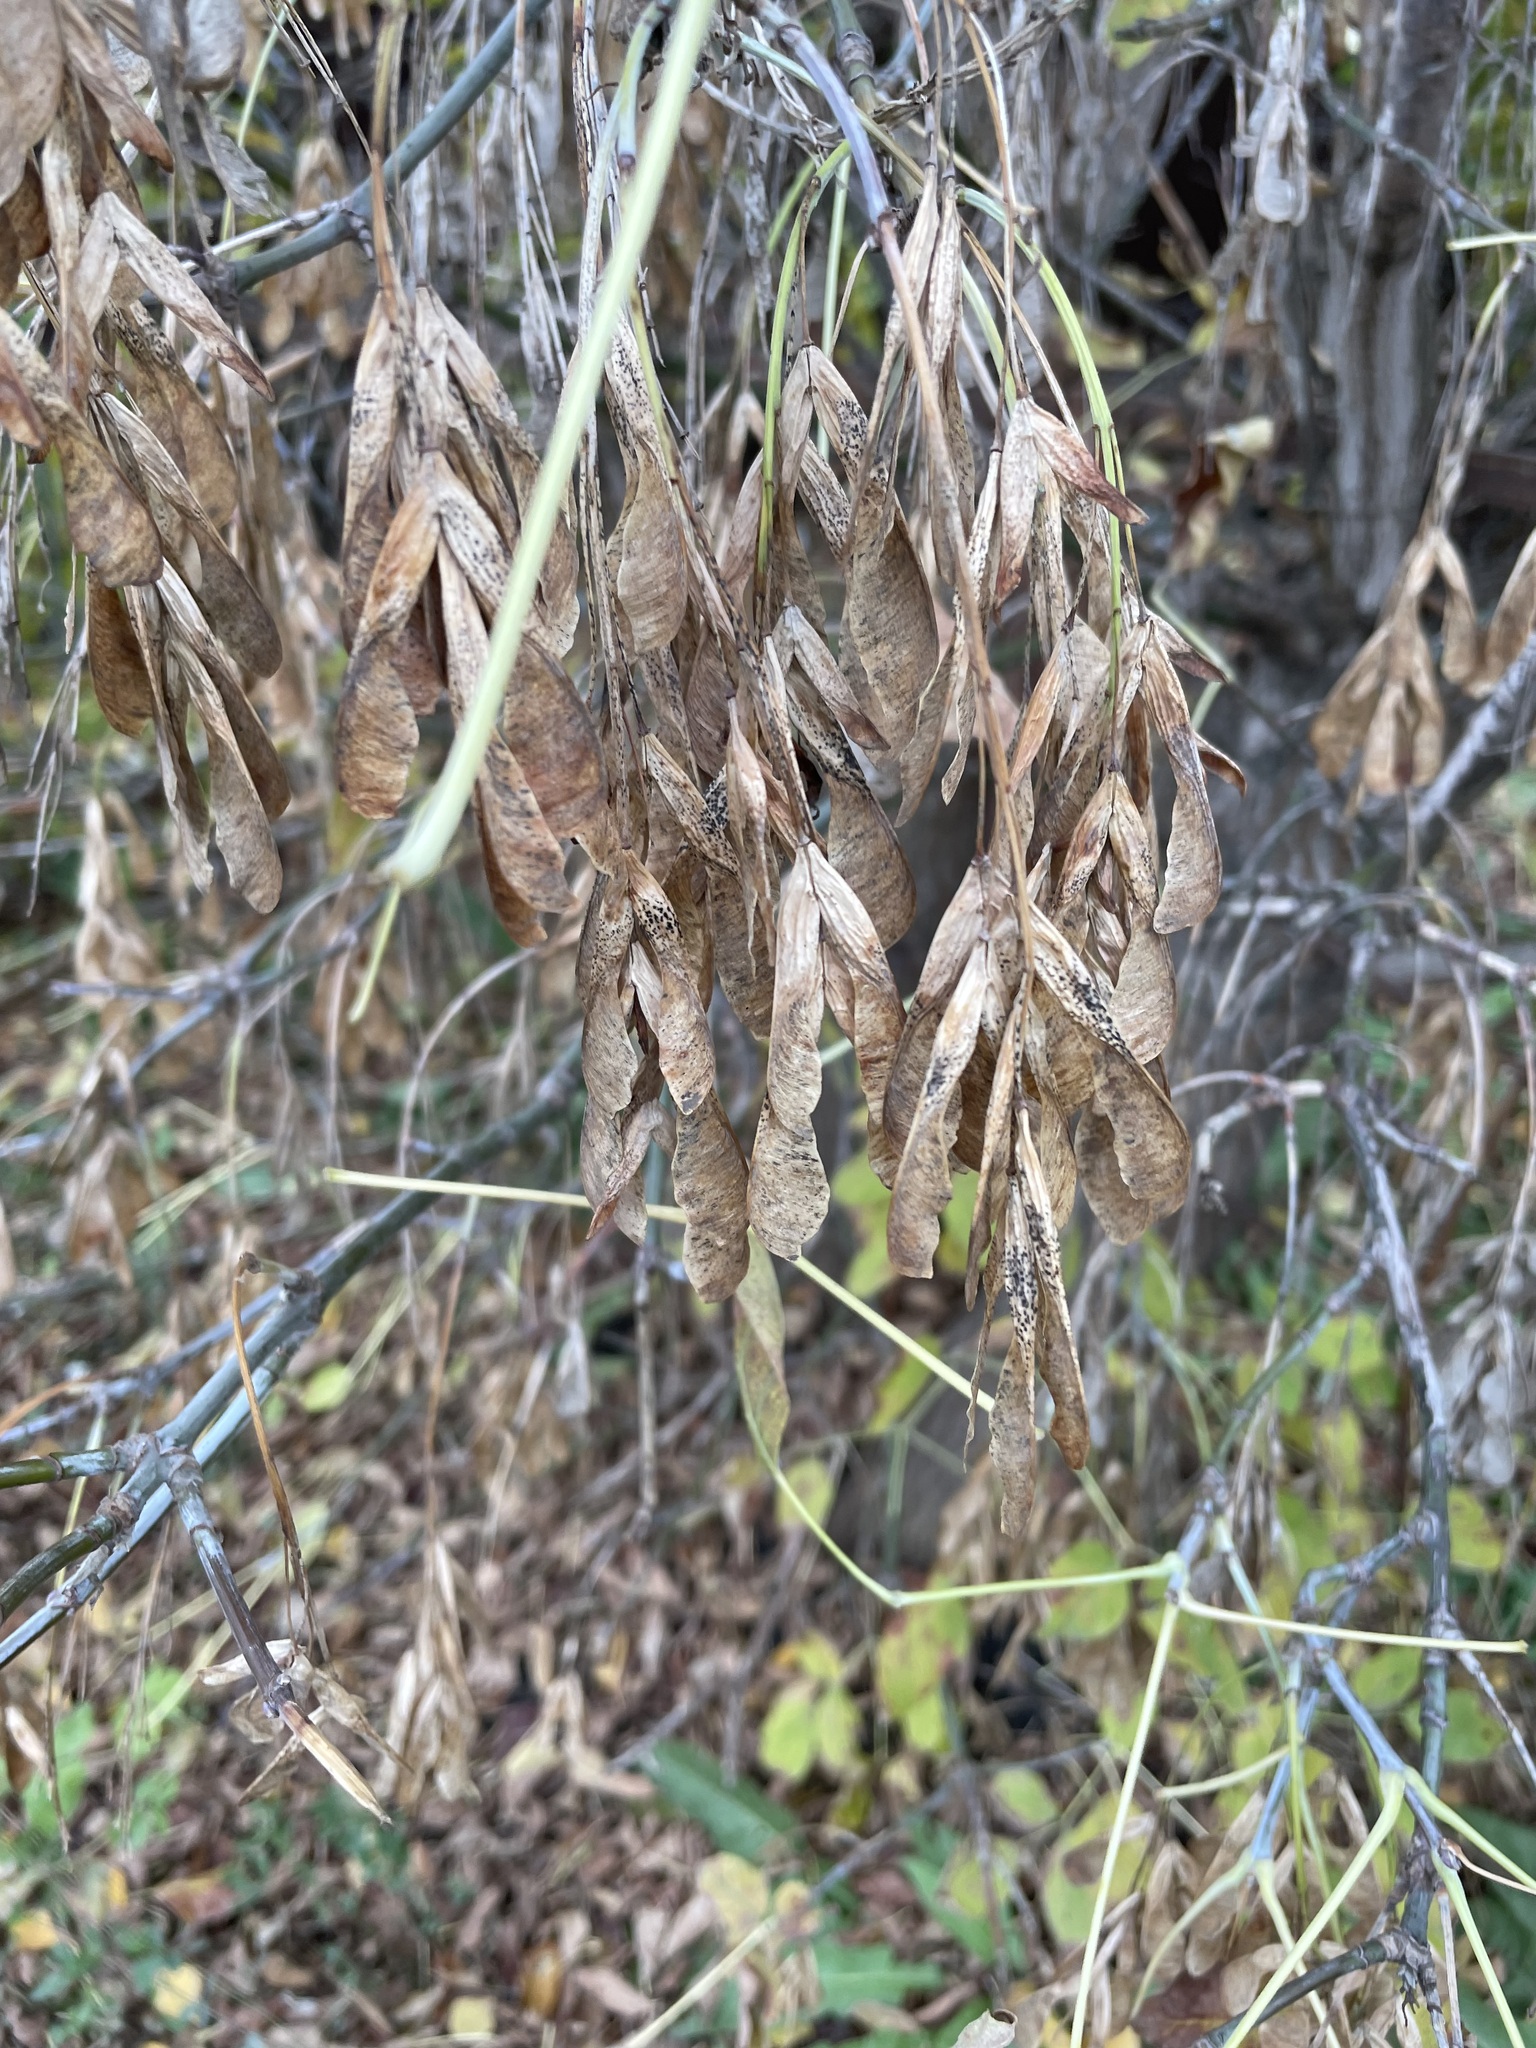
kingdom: Plantae
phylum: Tracheophyta
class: Magnoliopsida
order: Sapindales
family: Sapindaceae
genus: Acer
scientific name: Acer negundo
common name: Ashleaf maple
